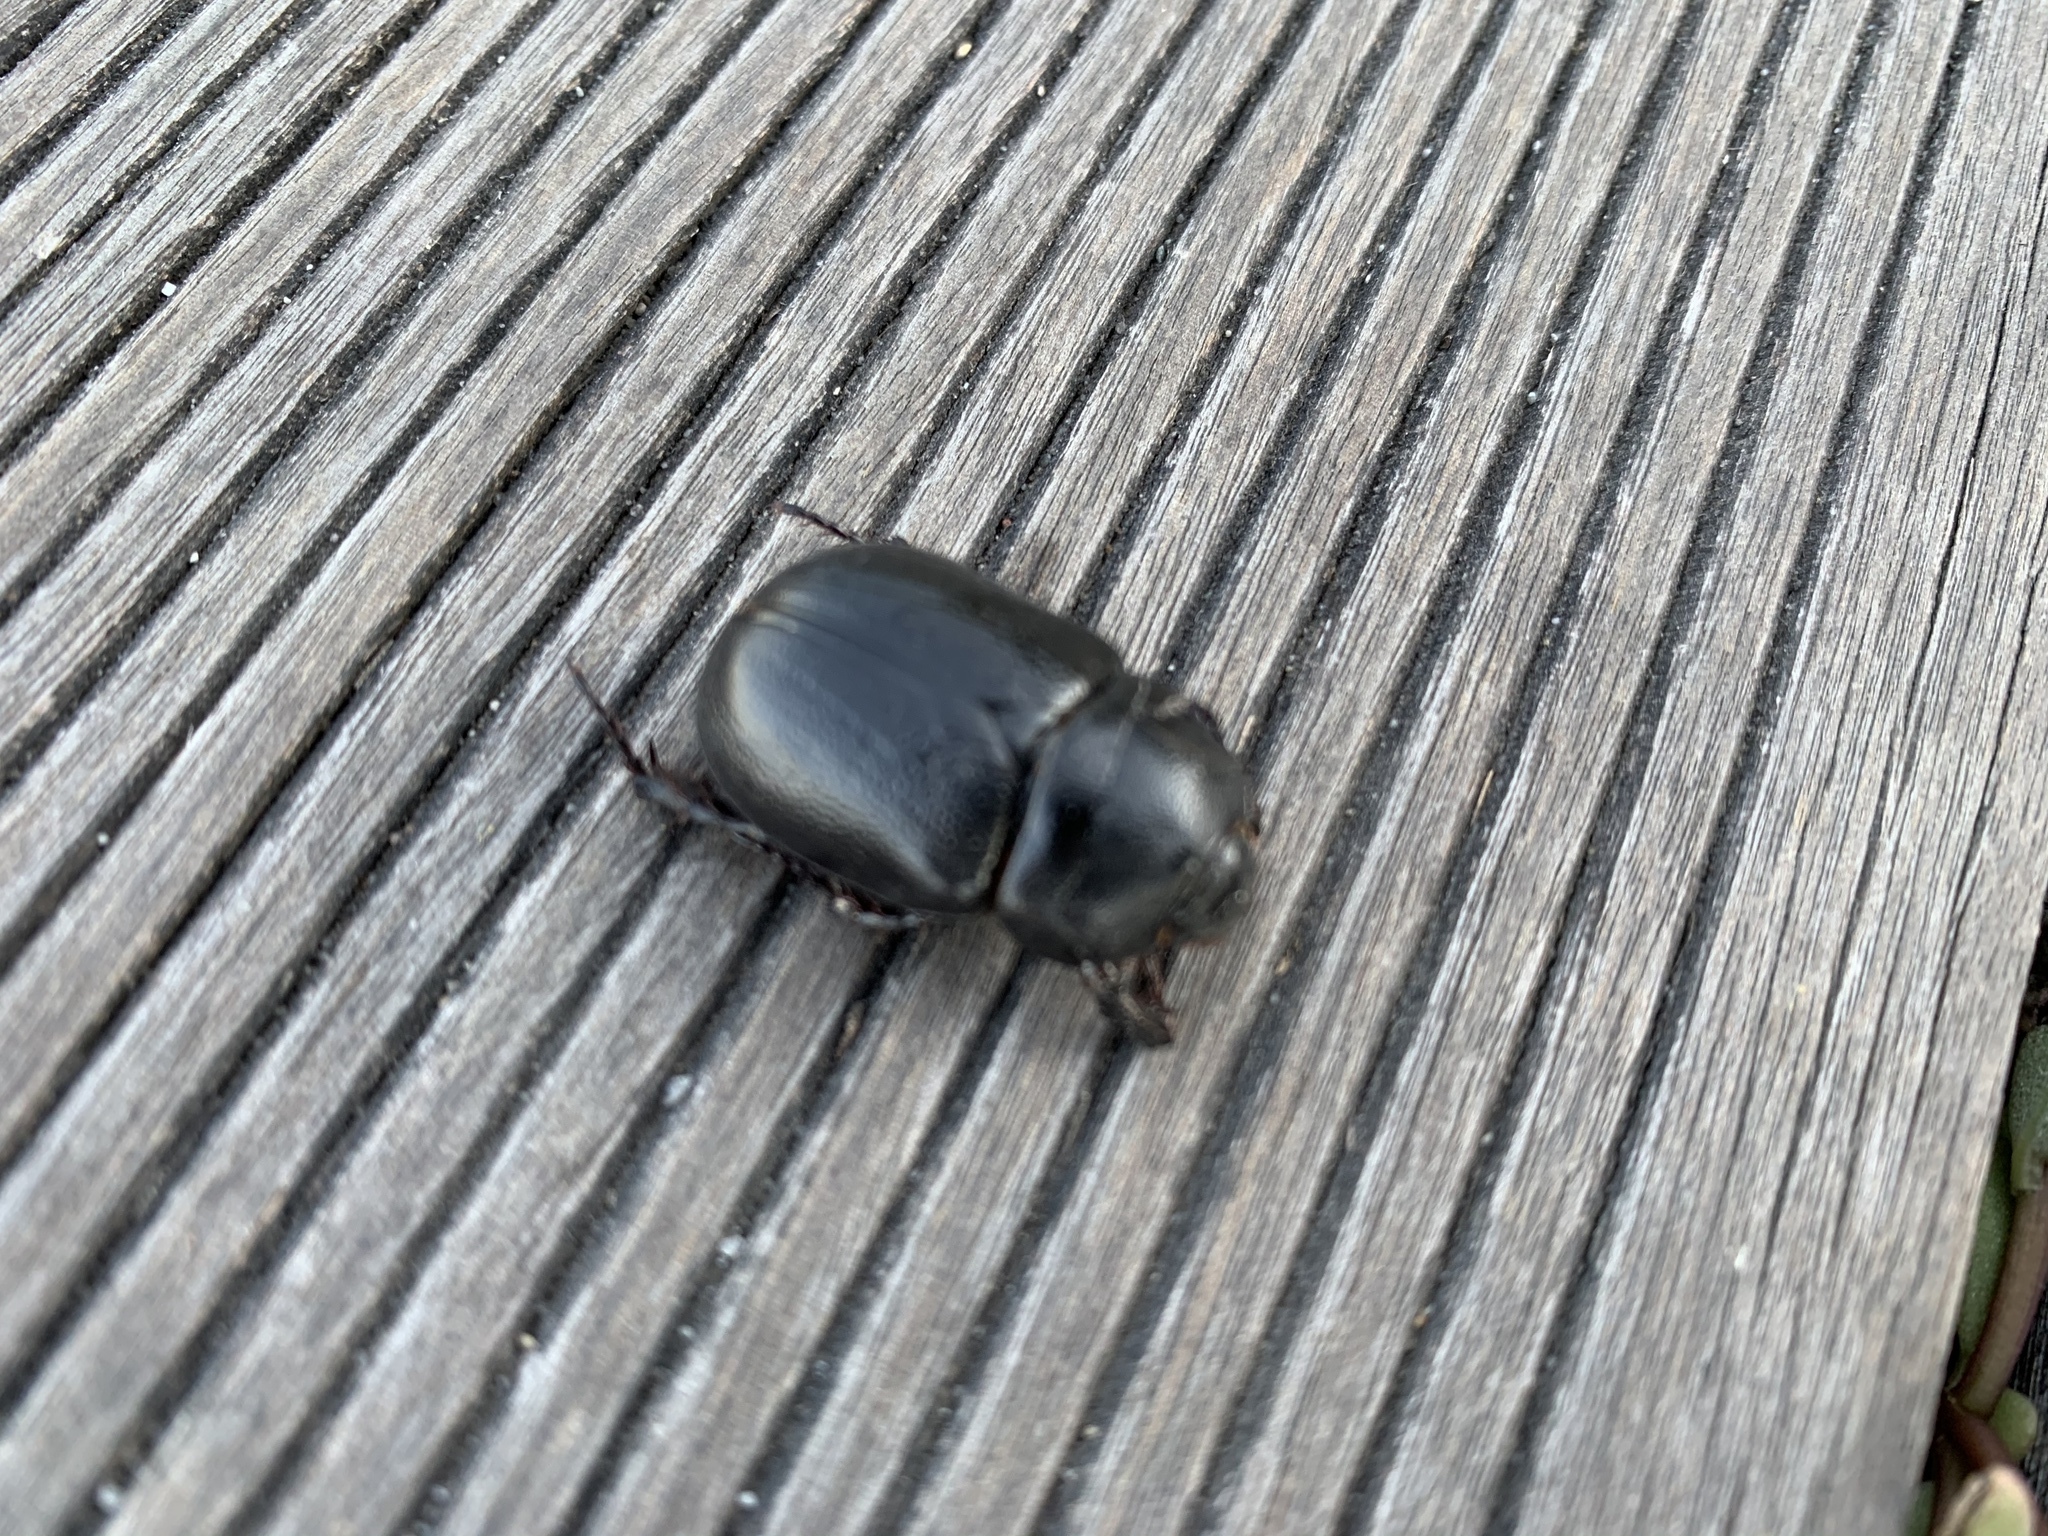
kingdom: Animalia
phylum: Arthropoda
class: Insecta
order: Coleoptera
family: Scarabaeidae
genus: Pentodon
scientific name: Pentodon bidens
